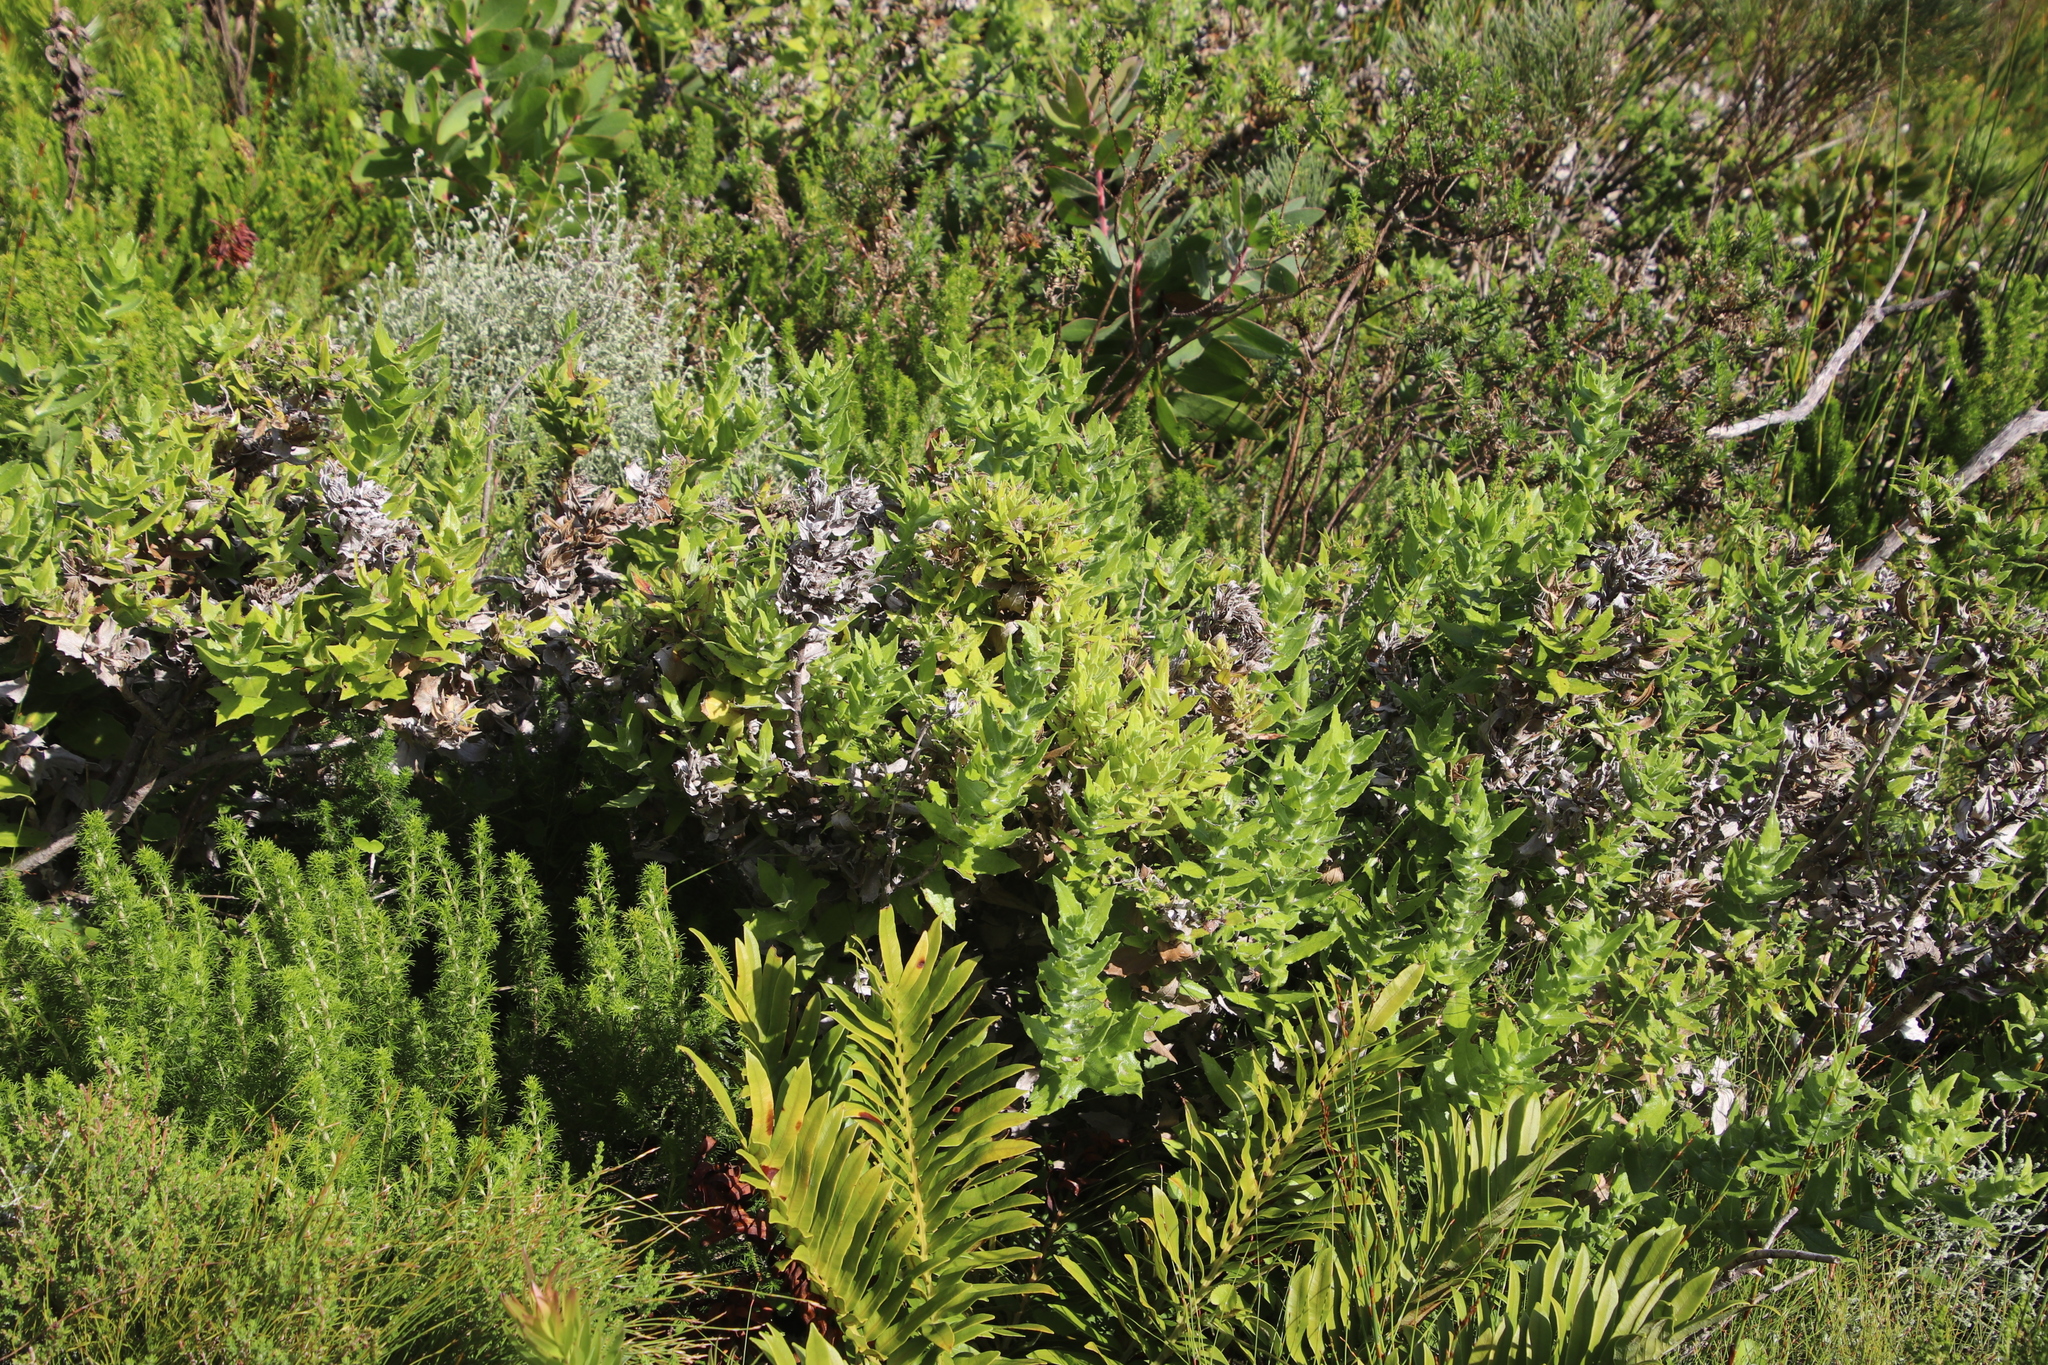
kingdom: Plantae
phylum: Tracheophyta
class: Magnoliopsida
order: Asterales
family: Asteraceae
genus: Osteospermum
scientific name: Osteospermum ilicifolium
